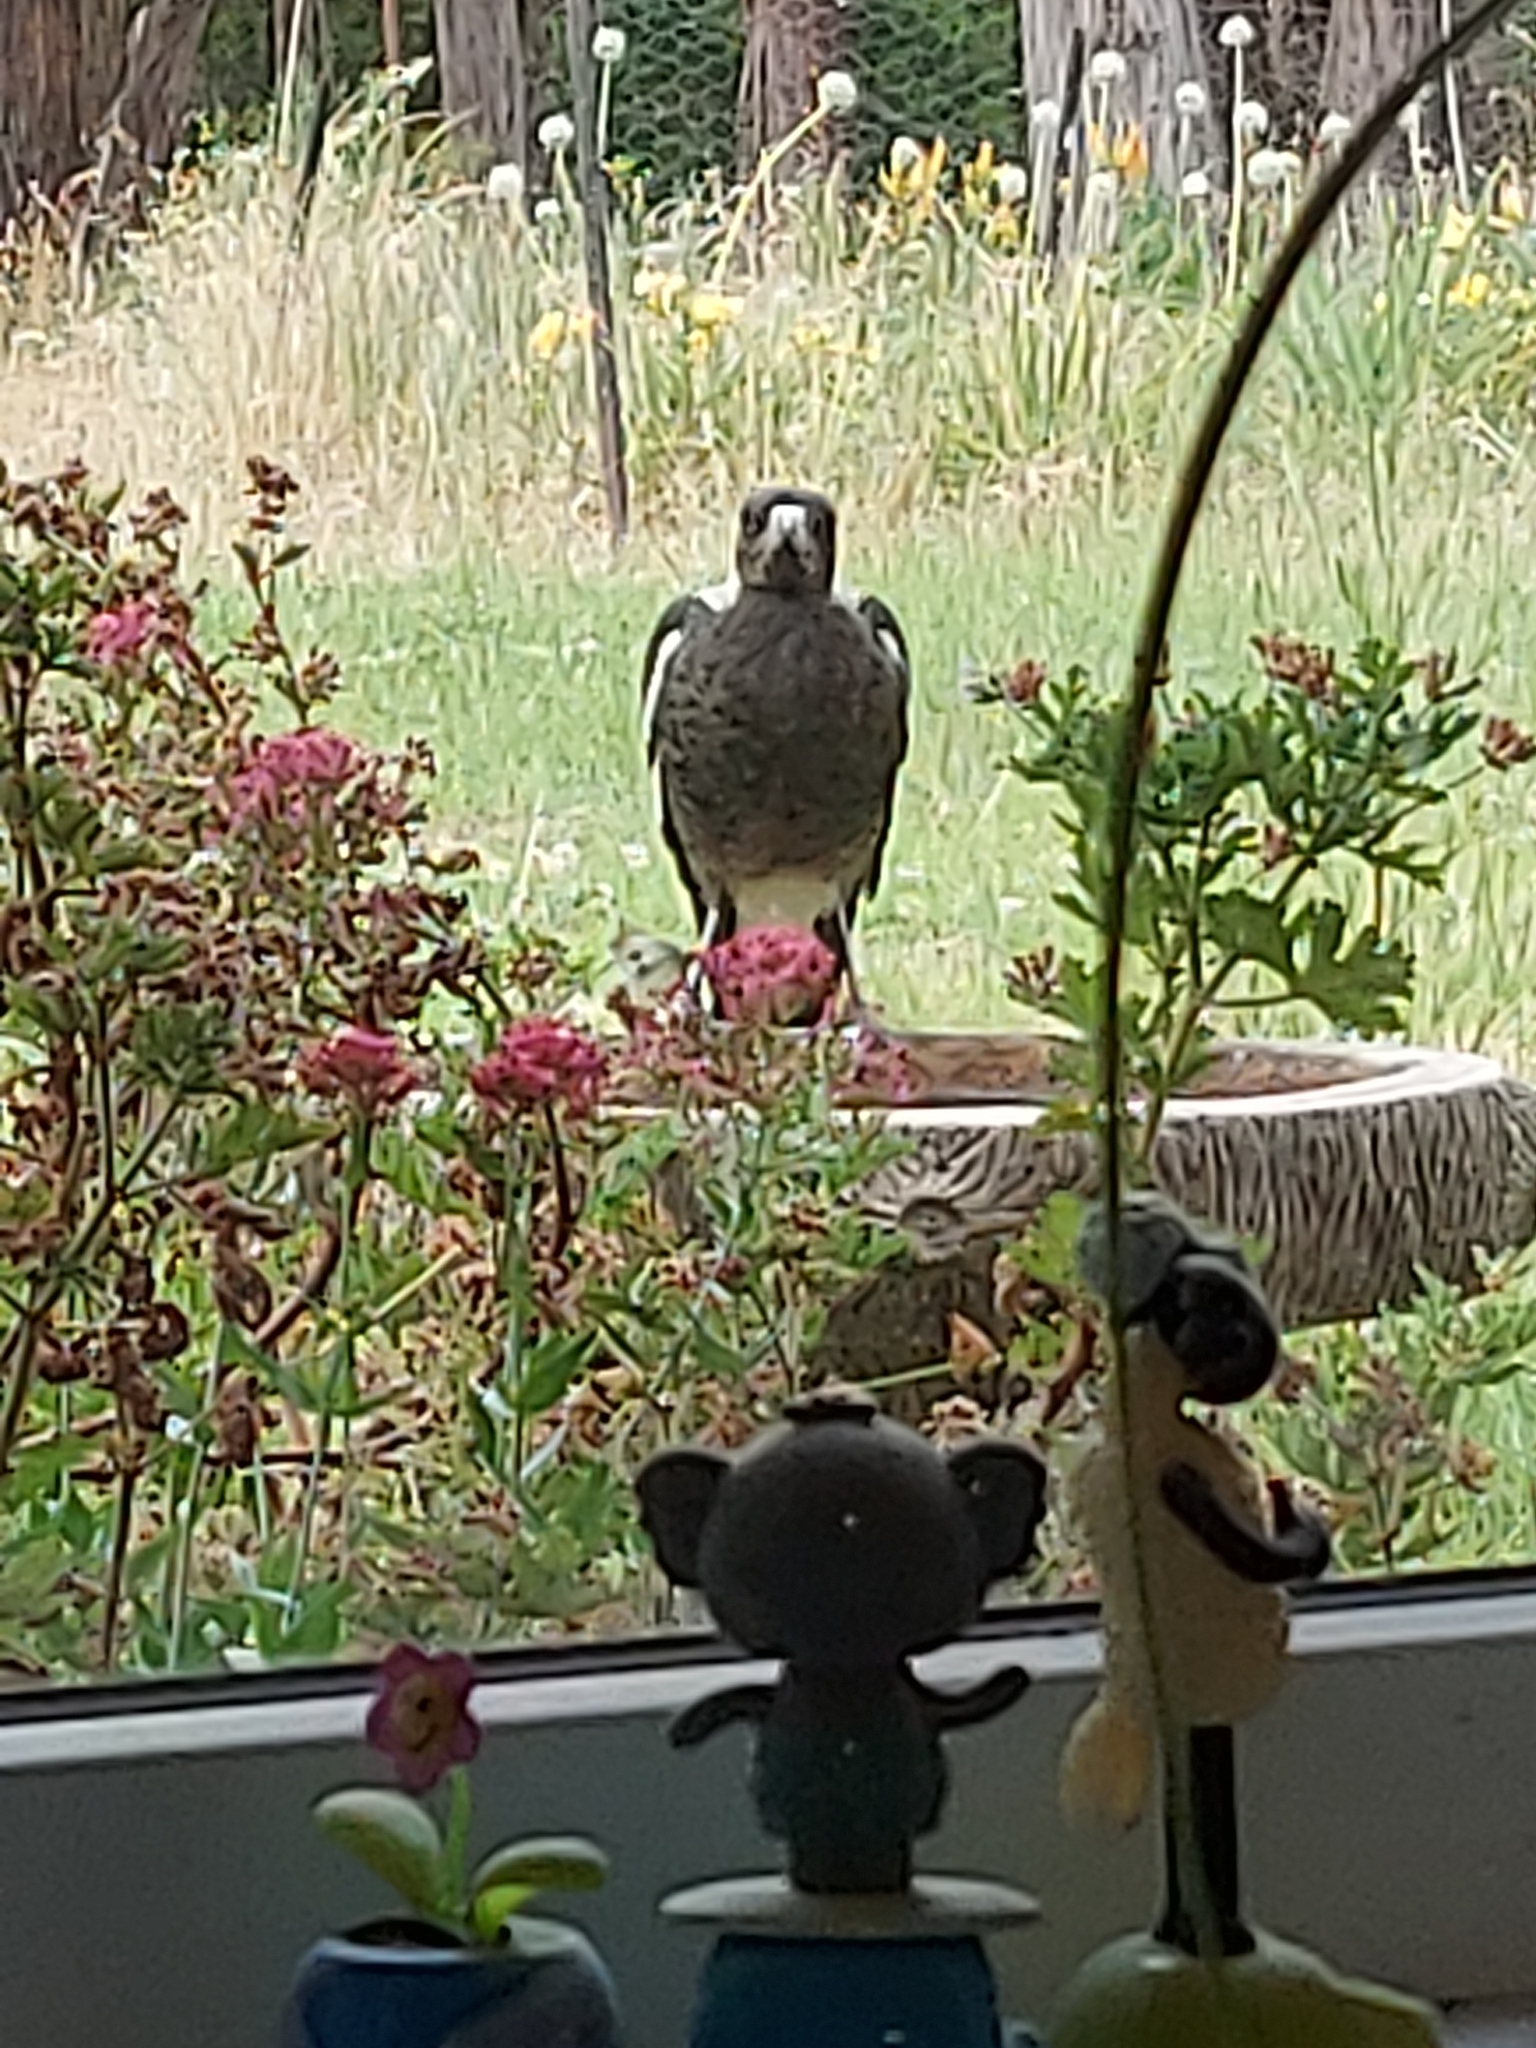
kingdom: Animalia
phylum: Chordata
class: Aves
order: Passeriformes
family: Cracticidae
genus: Gymnorhina
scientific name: Gymnorhina tibicen
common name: Australian magpie
